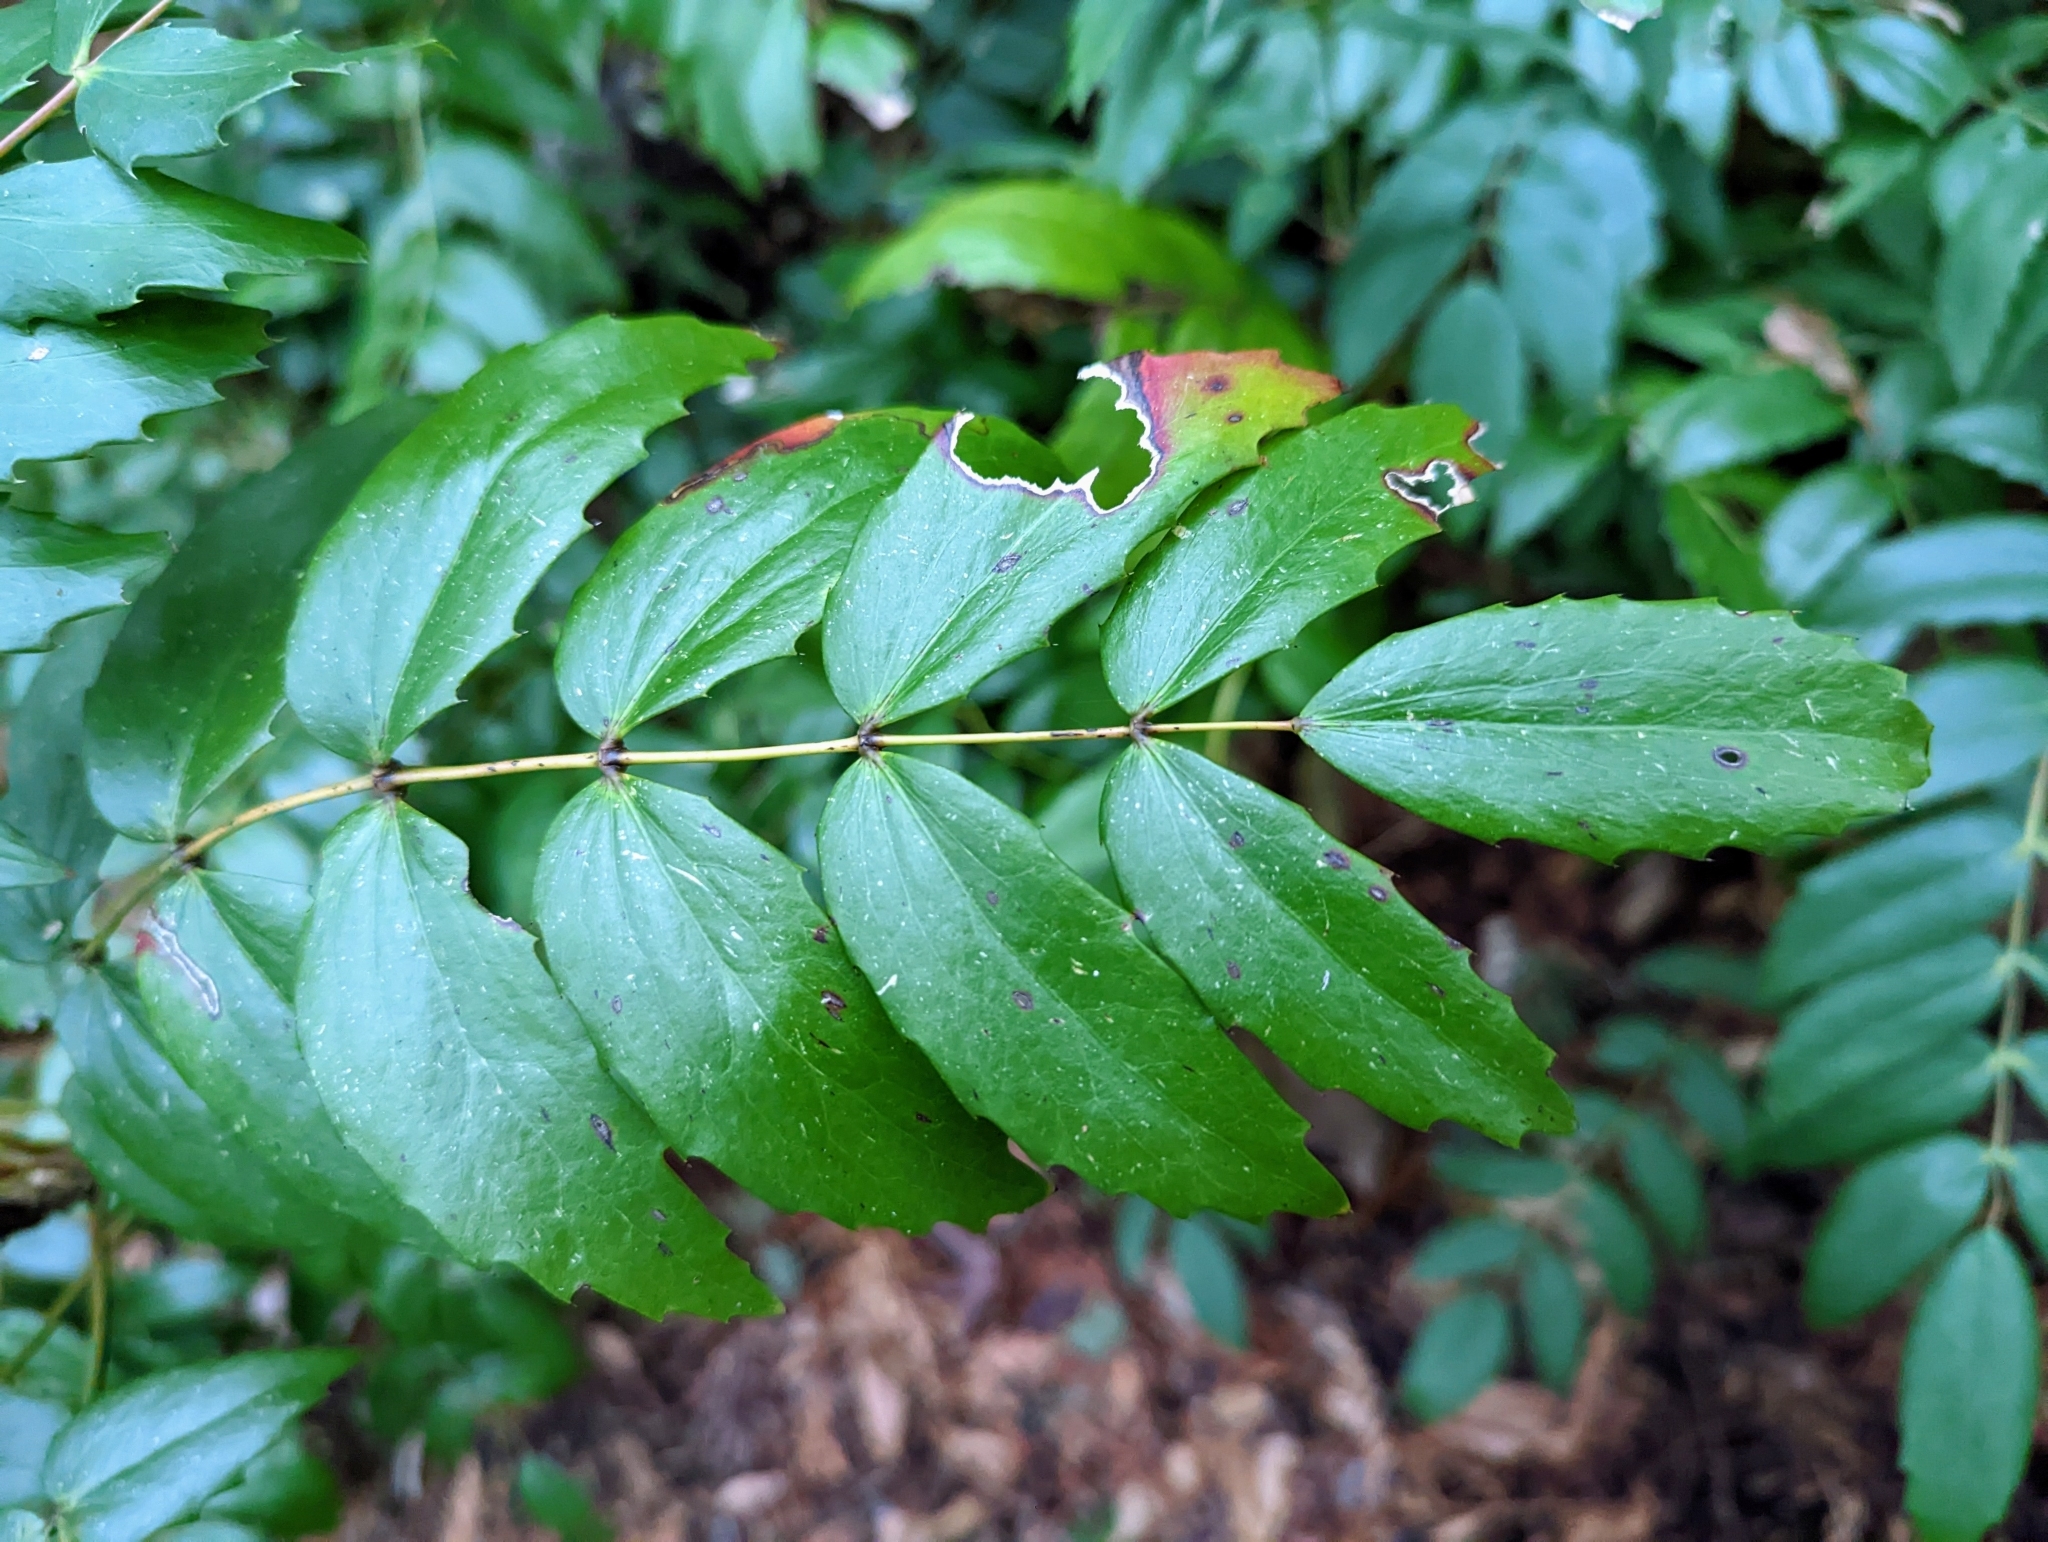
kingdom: Plantae
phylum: Tracheophyta
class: Magnoliopsida
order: Ranunculales
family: Berberidaceae
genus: Mahonia
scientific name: Mahonia nervosa
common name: Cascade oregon-grape
